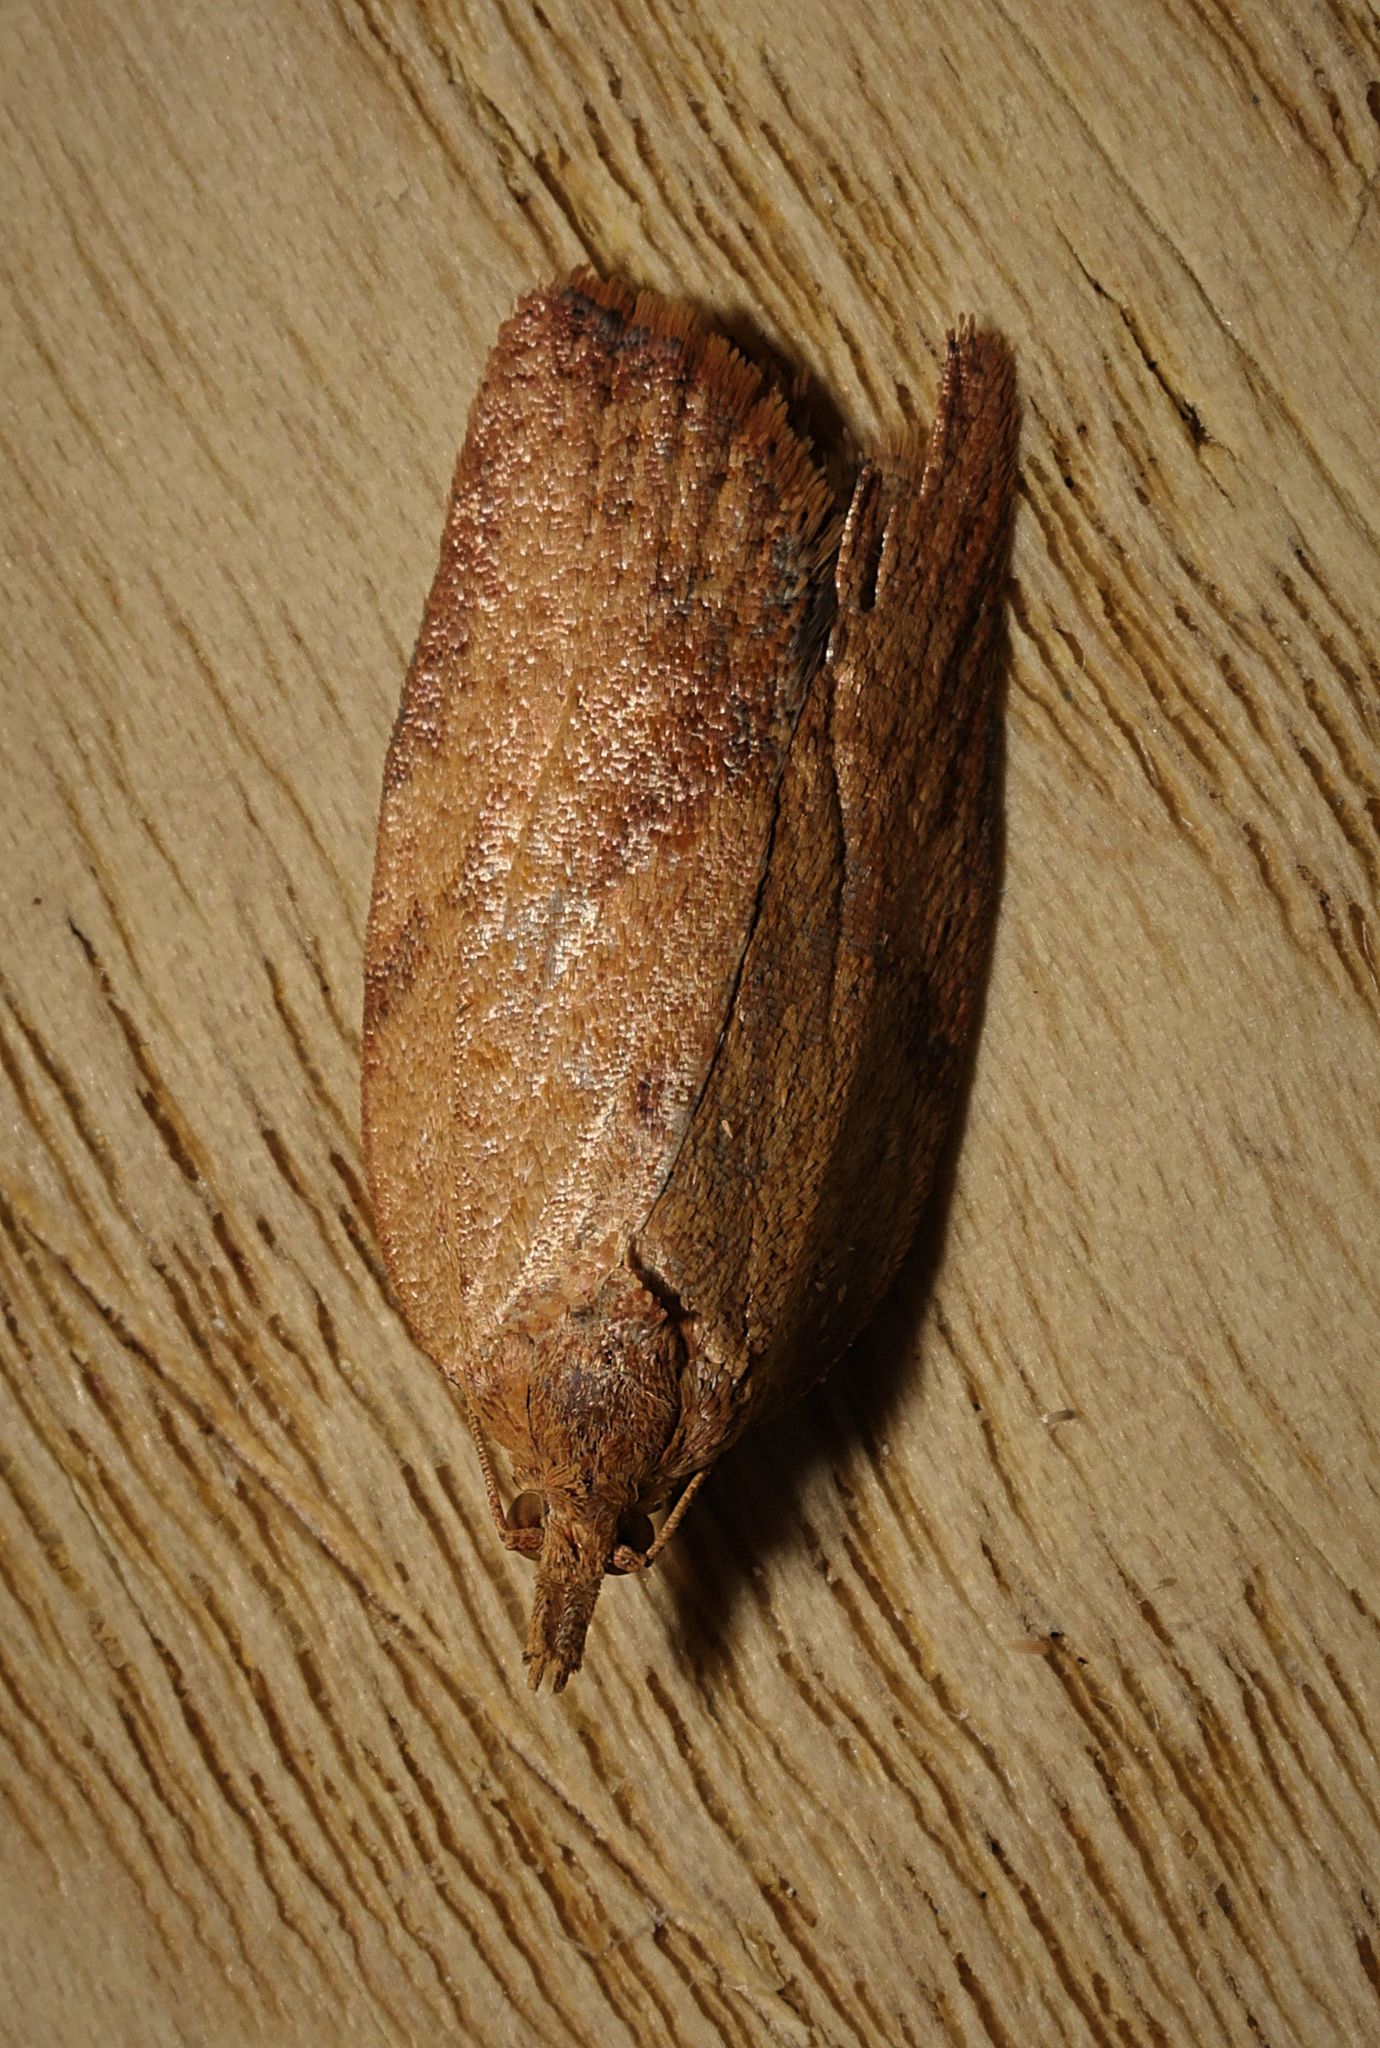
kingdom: Animalia
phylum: Arthropoda
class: Insecta
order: Lepidoptera
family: Tortricidae
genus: Epiphyas
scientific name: Epiphyas postvittana
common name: Light brown apple moth
